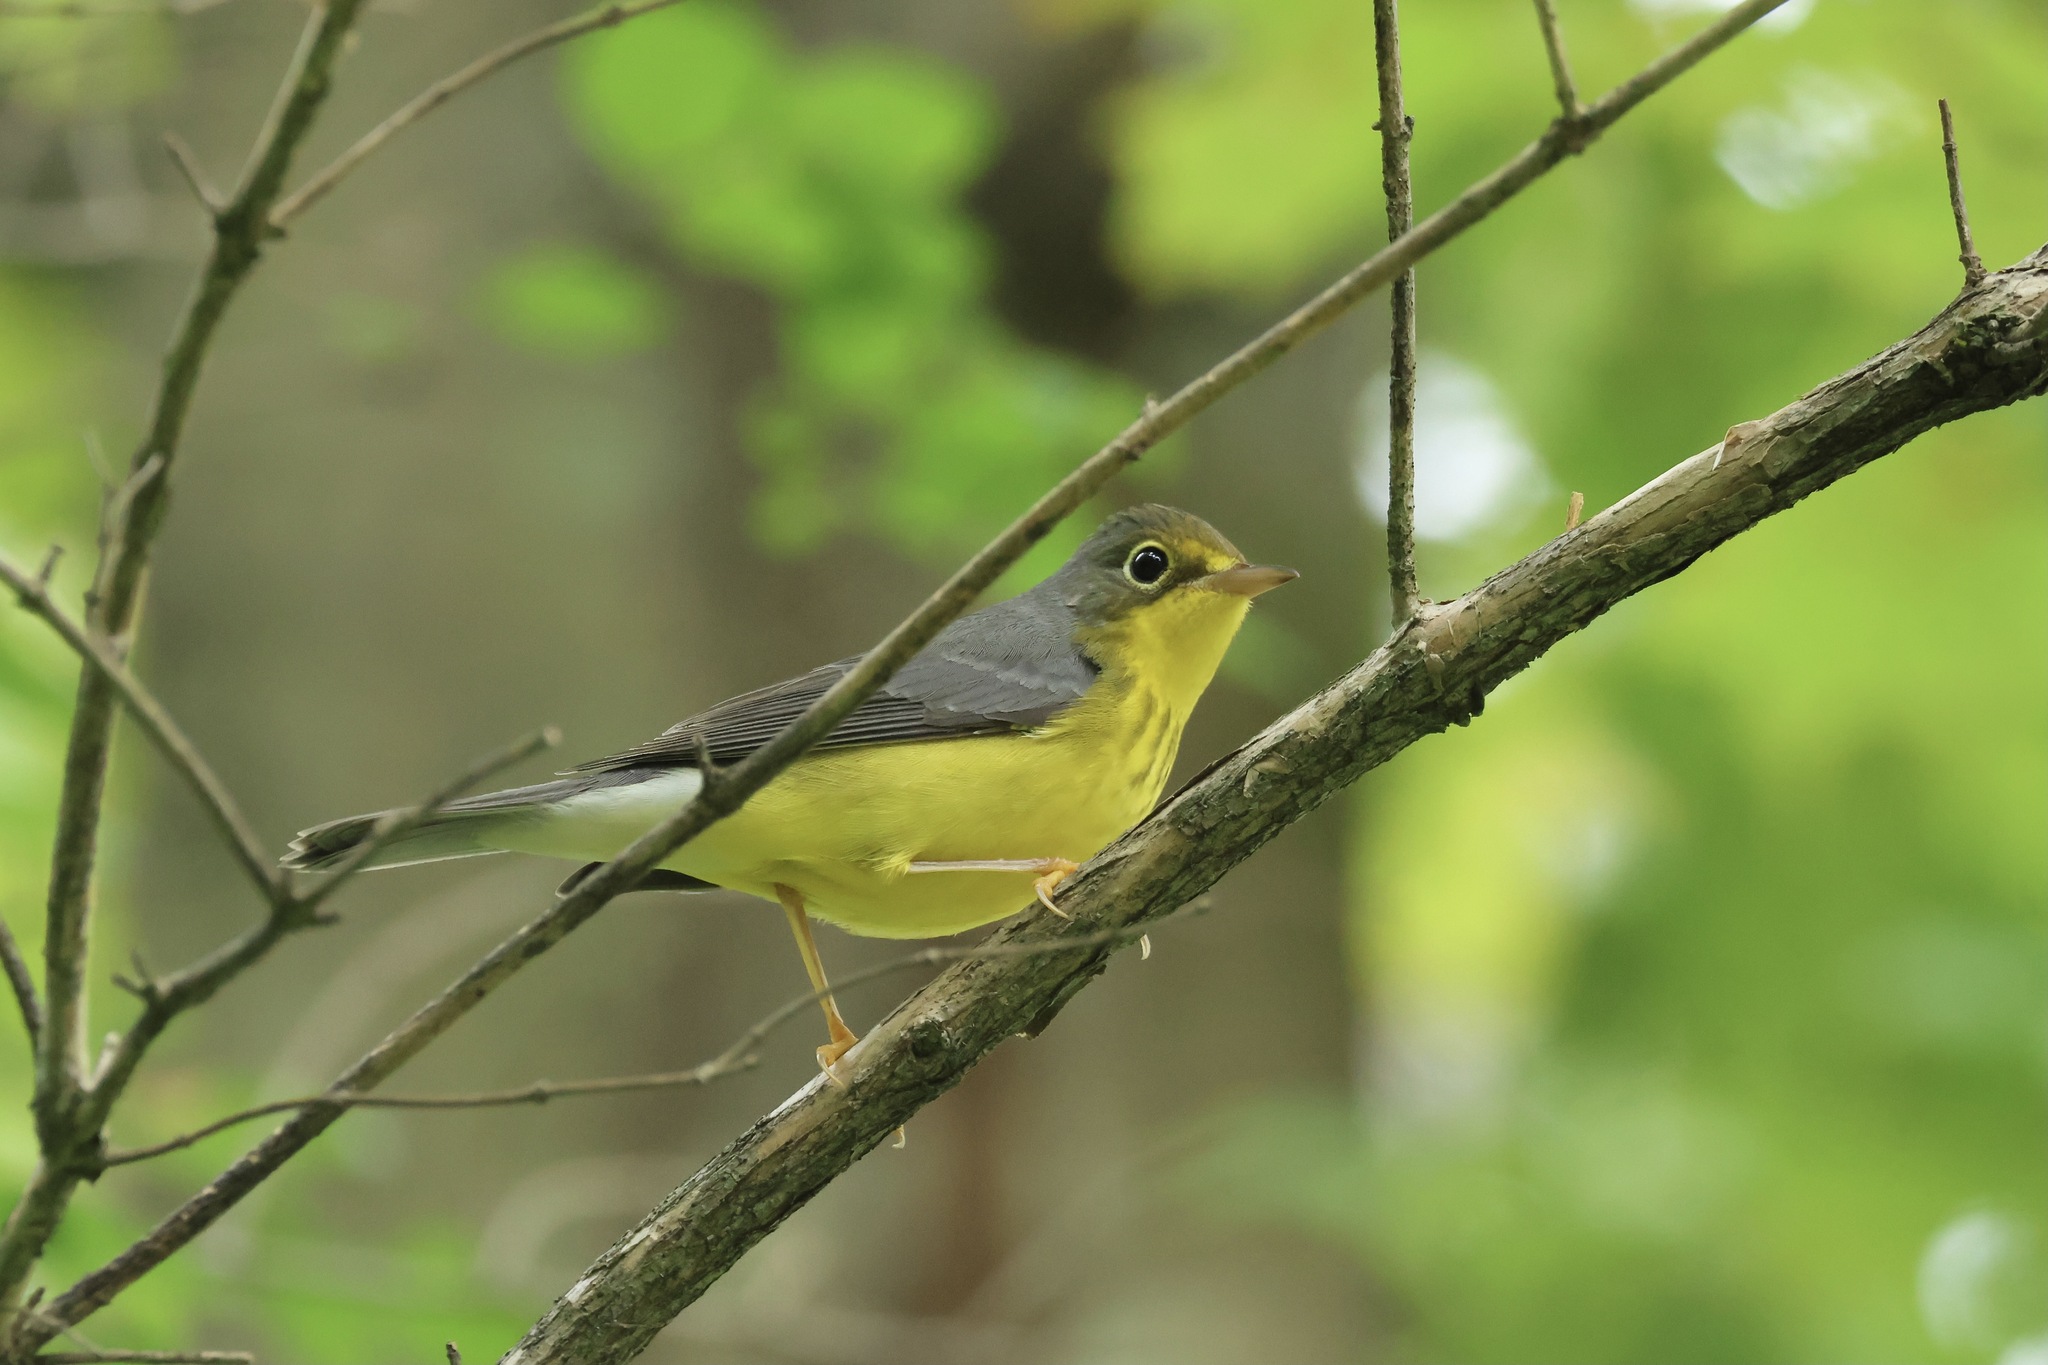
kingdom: Animalia
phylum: Chordata
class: Aves
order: Passeriformes
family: Parulidae
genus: Cardellina
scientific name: Cardellina canadensis
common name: Canada warbler
